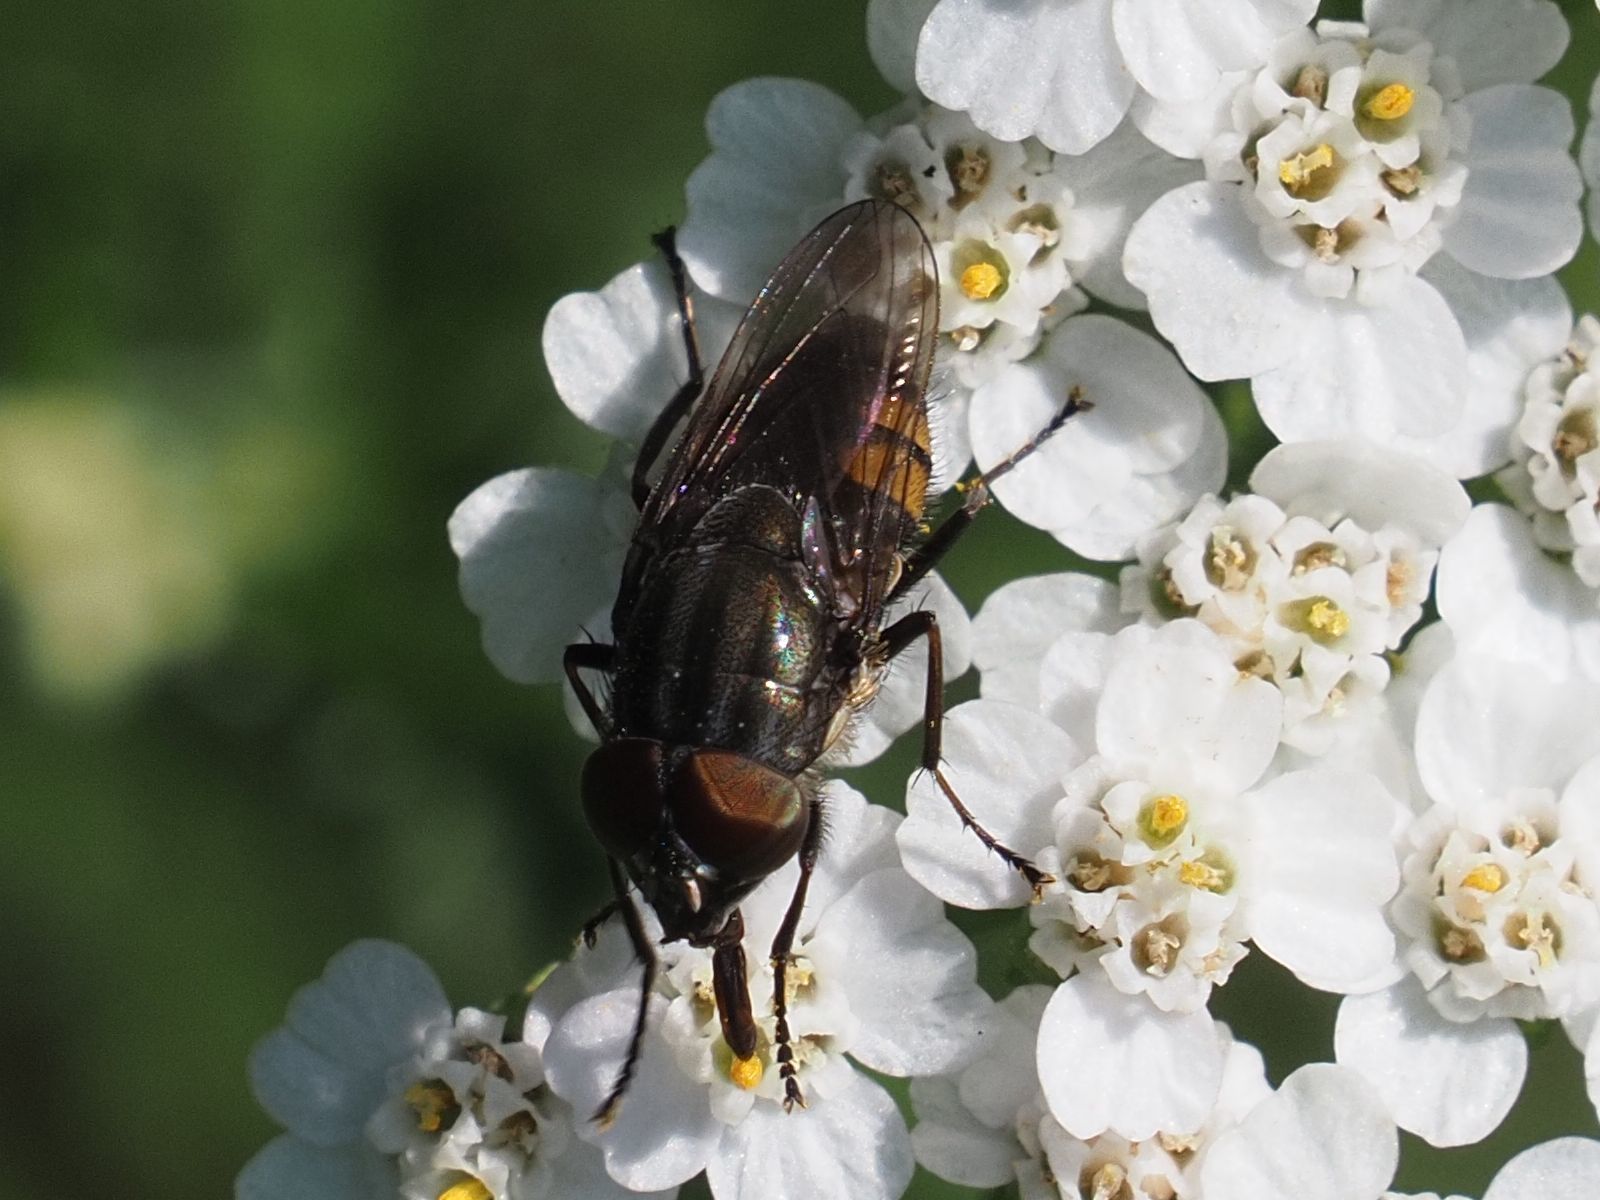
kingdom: Animalia
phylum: Arthropoda
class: Insecta
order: Diptera
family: Calliphoridae
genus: Stomorhina
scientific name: Stomorhina lunata
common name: Locust blowfly
